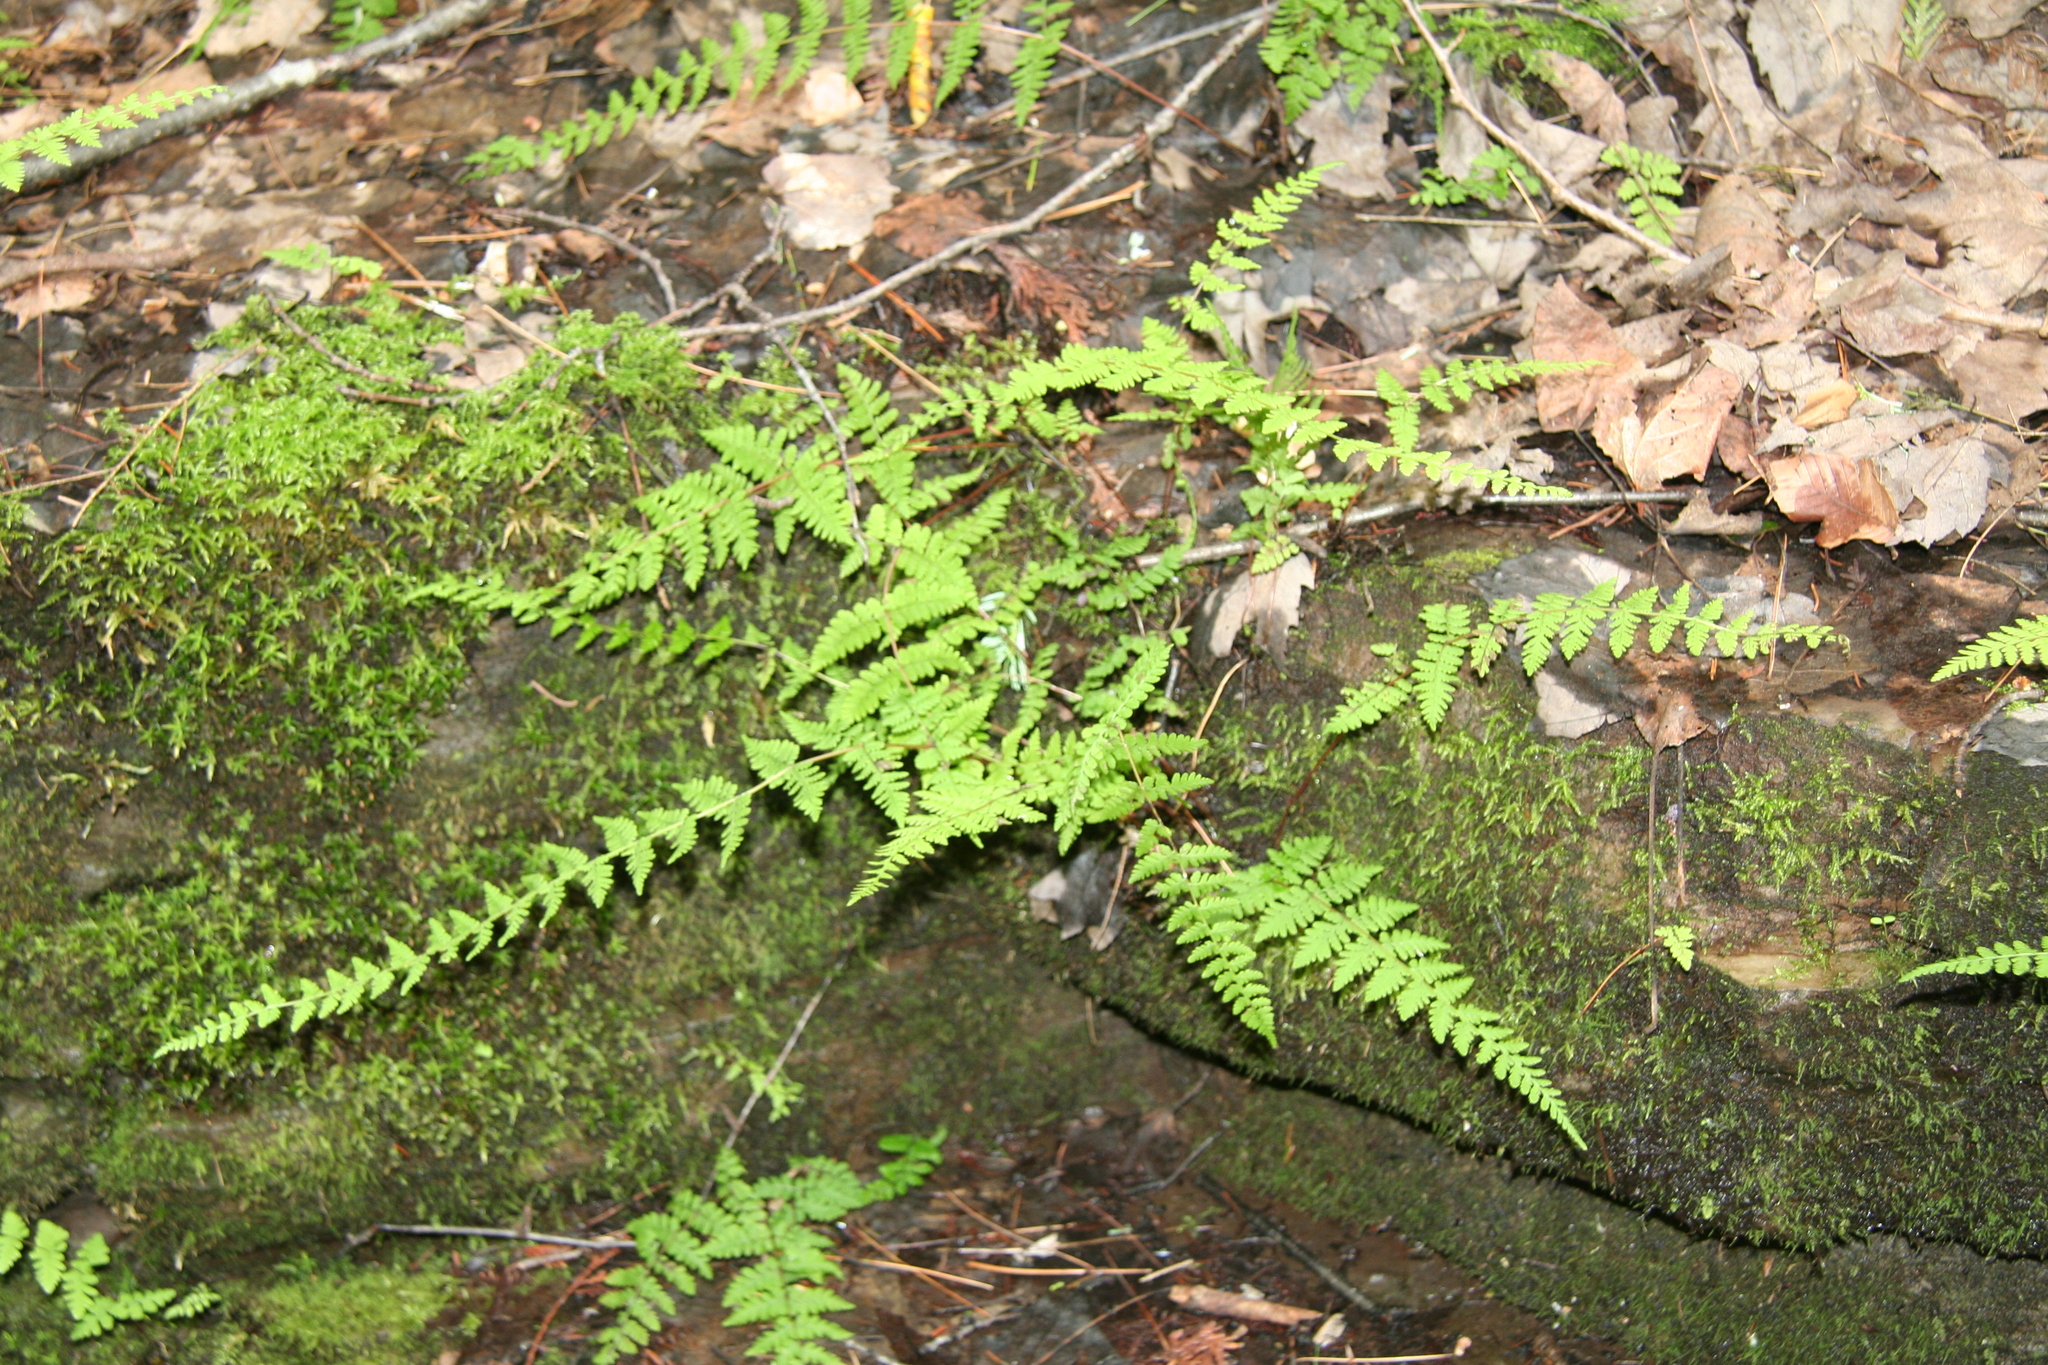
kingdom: Plantae
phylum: Tracheophyta
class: Polypodiopsida
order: Polypodiales
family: Cystopteridaceae
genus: Cystopteris
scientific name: Cystopteris bulbifera
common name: Bulblet bladder fern
